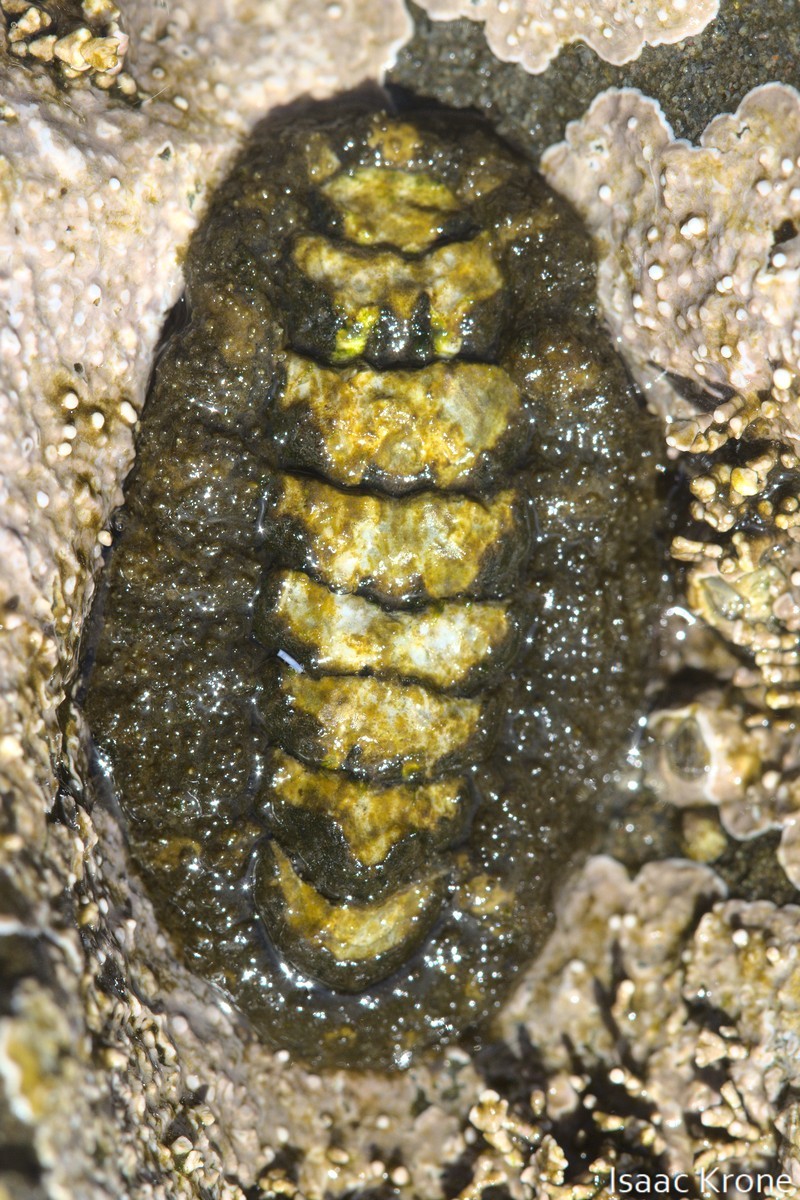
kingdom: Animalia
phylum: Mollusca
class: Polyplacophora
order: Chitonida
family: Tonicellidae
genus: Nuttallina
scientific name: Nuttallina californica
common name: California nuttall chiton
